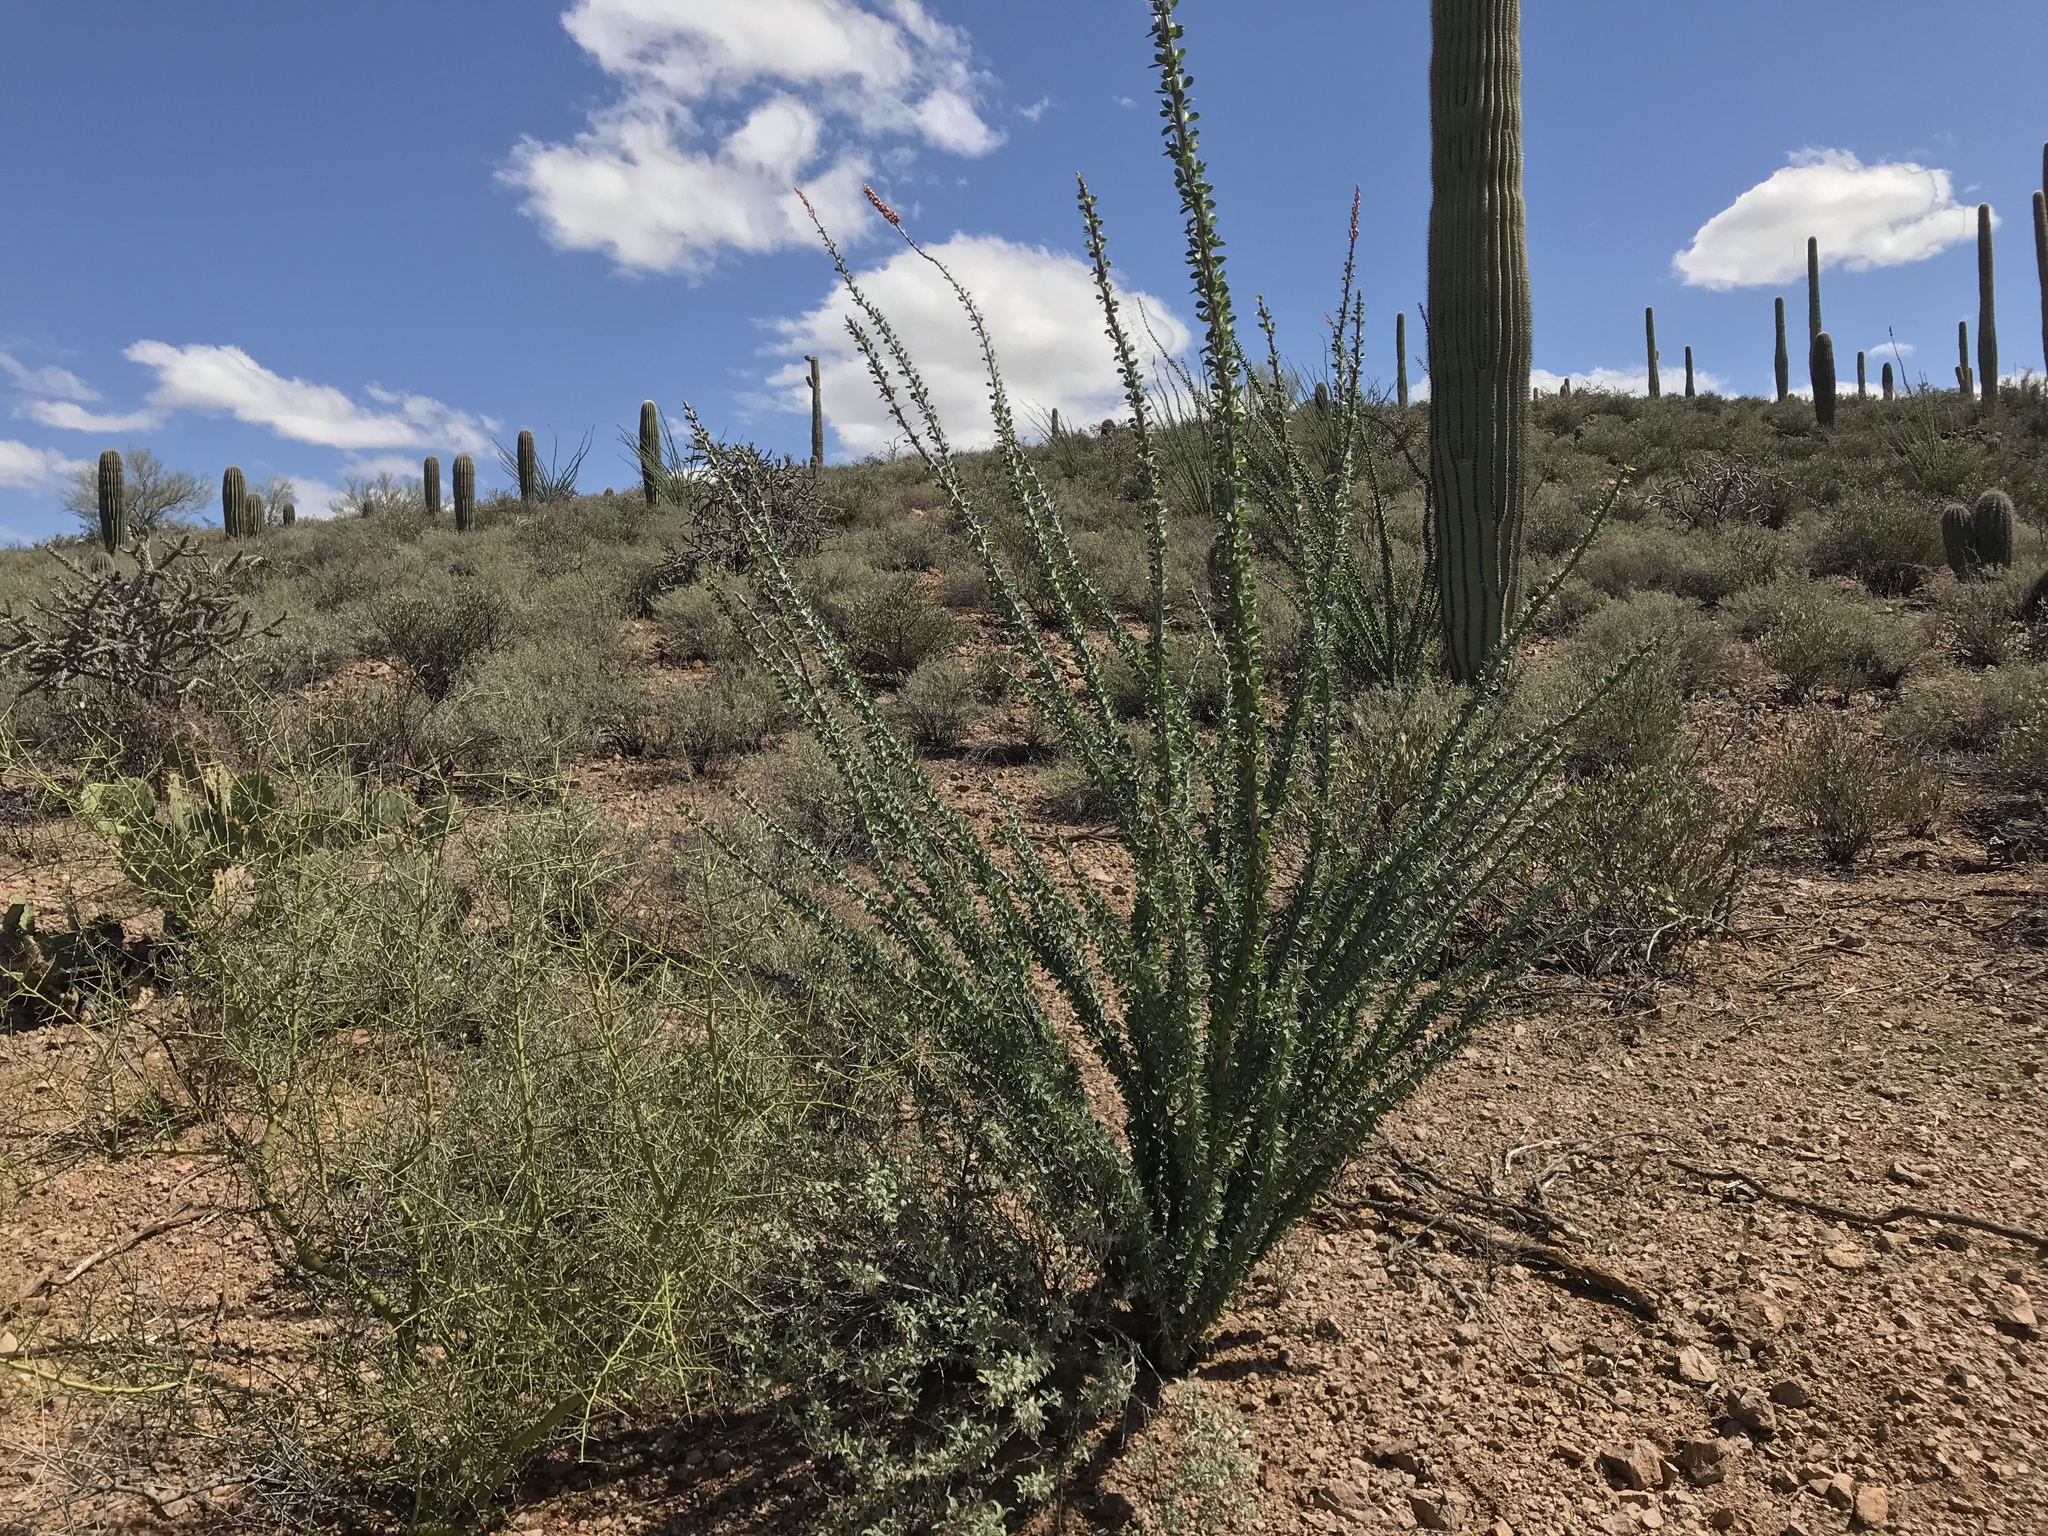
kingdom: Plantae
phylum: Tracheophyta
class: Magnoliopsida
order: Ericales
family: Fouquieriaceae
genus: Fouquieria
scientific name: Fouquieria splendens
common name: Vine-cactus
